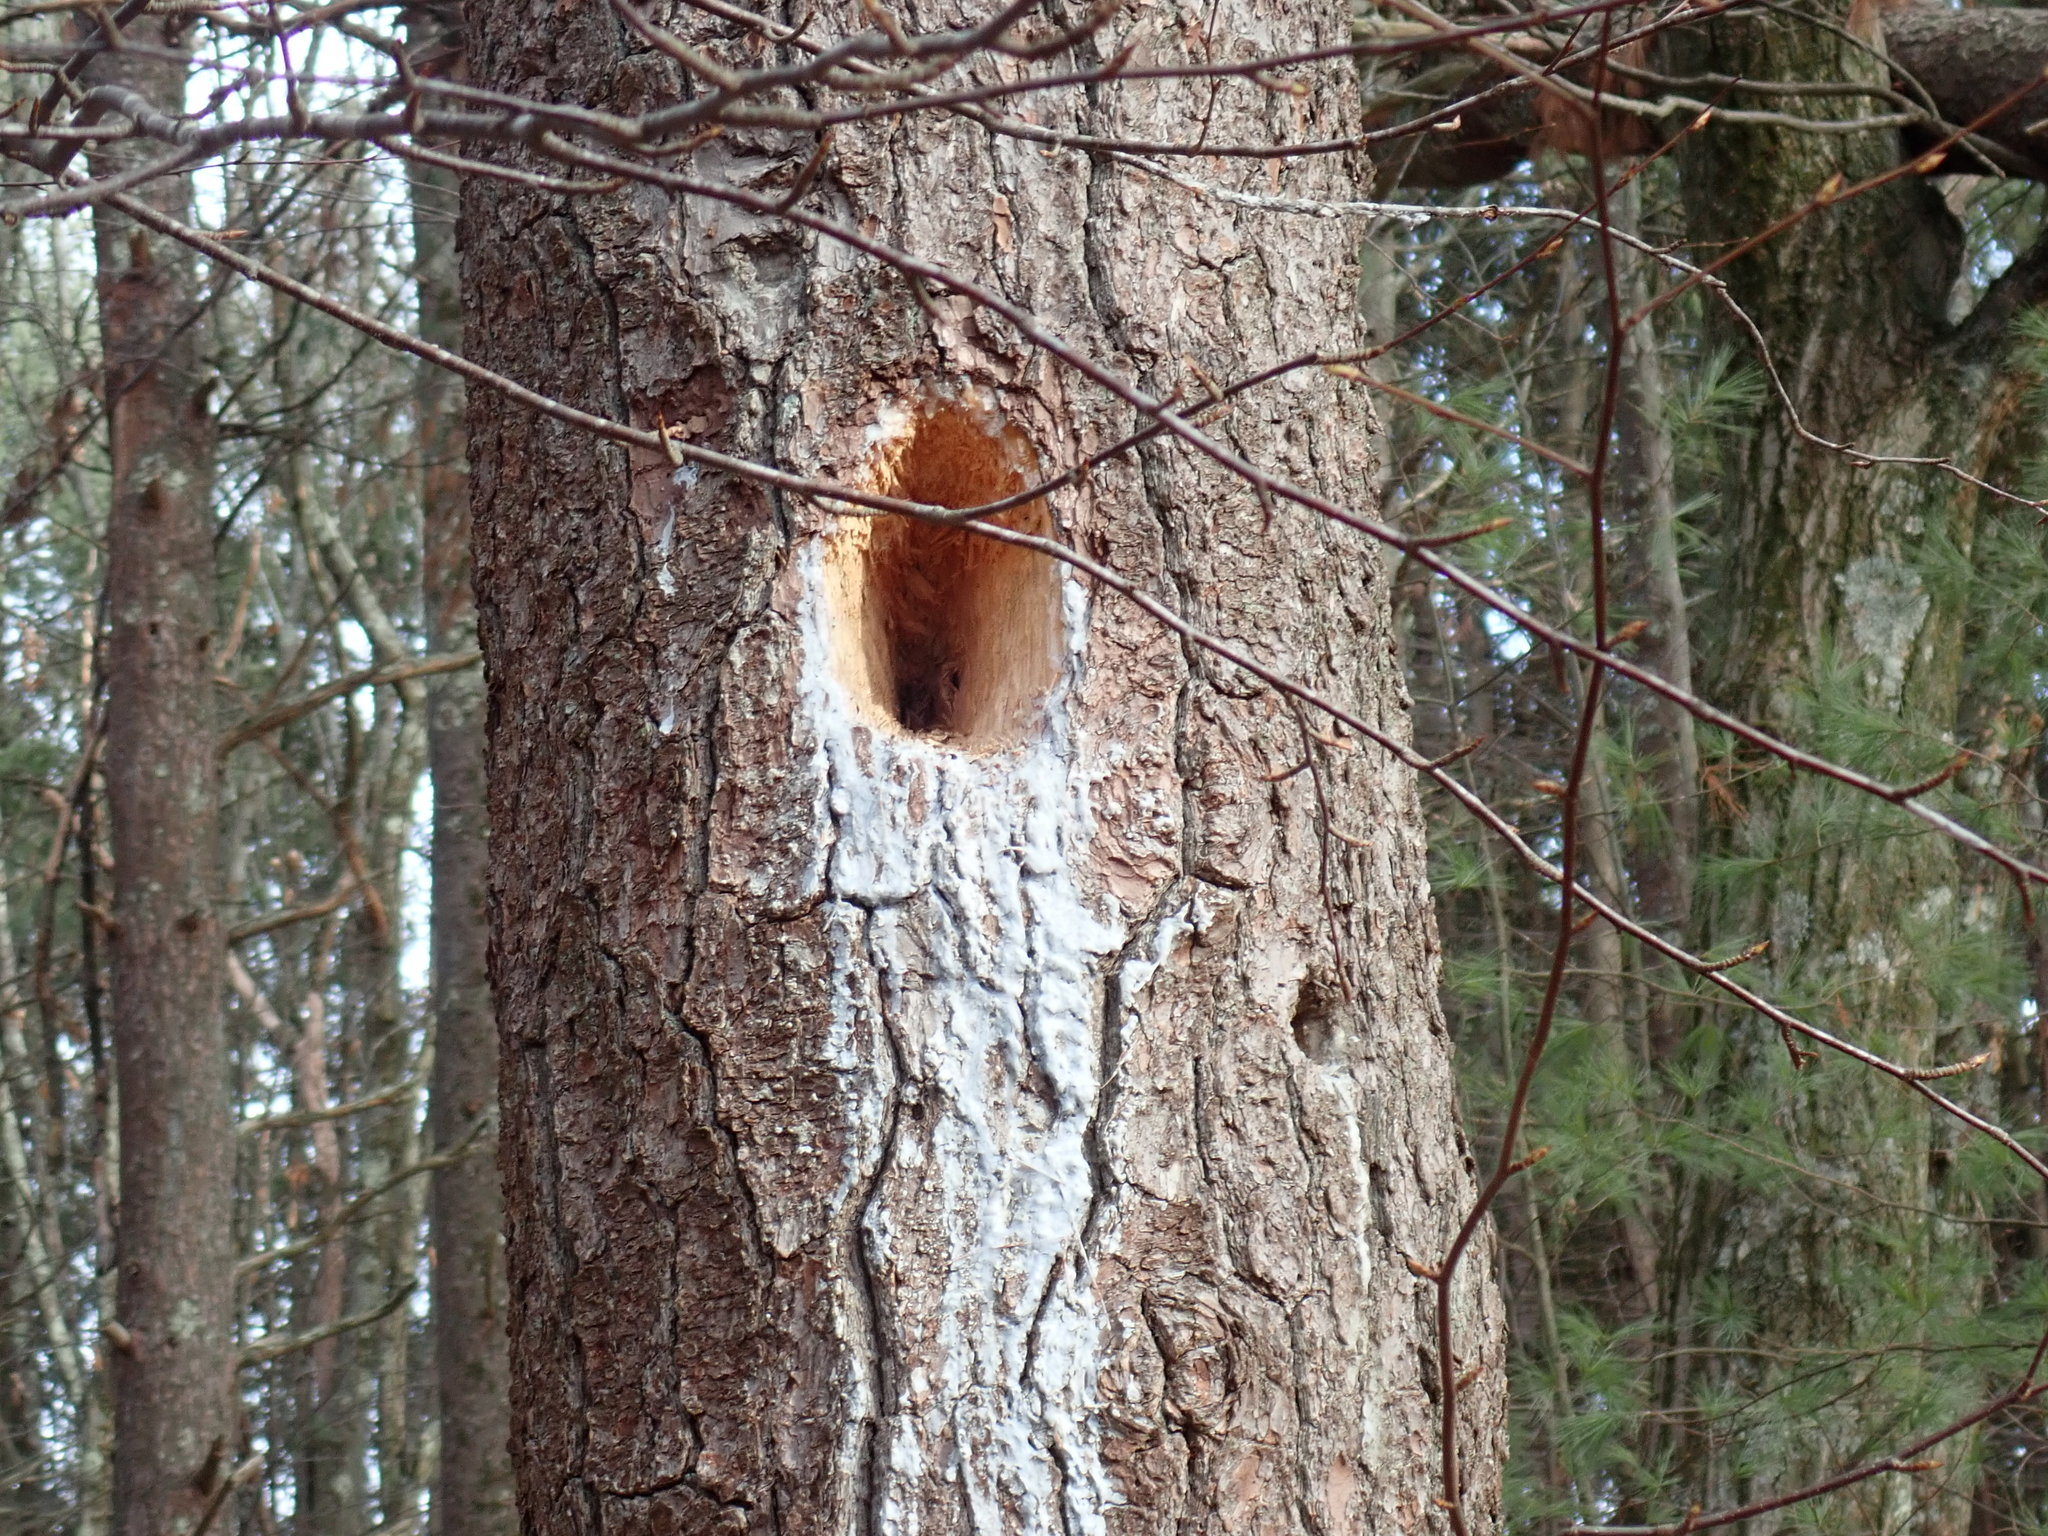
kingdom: Animalia
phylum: Chordata
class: Aves
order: Piciformes
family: Picidae
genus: Dryocopus
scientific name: Dryocopus pileatus
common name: Pileated woodpecker
